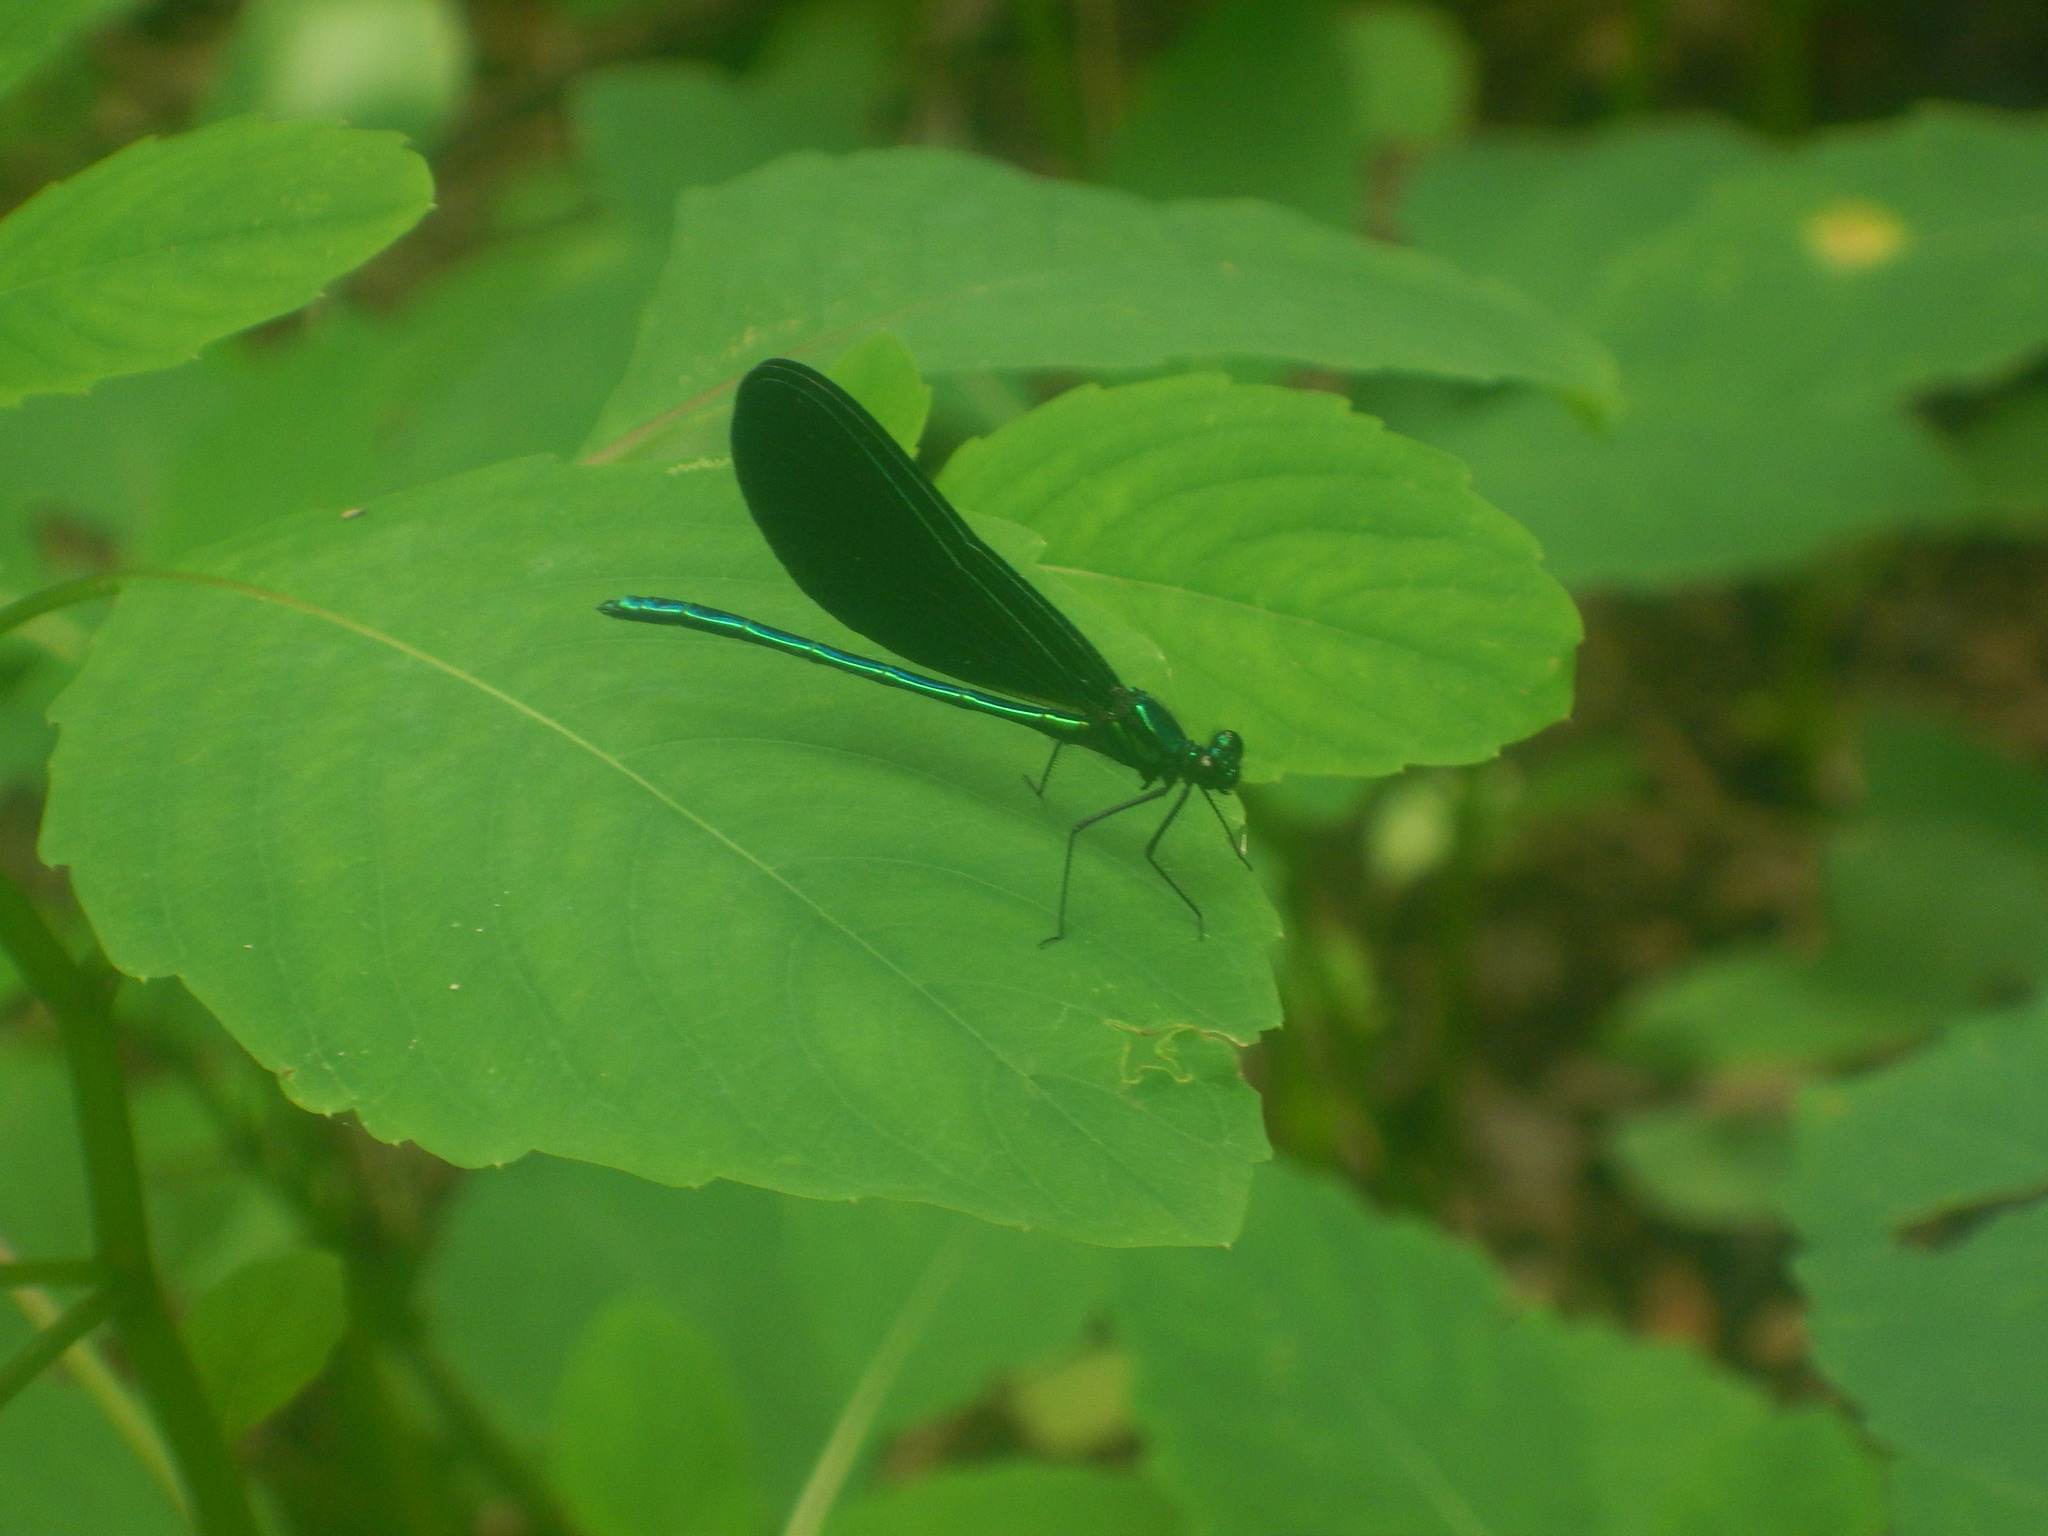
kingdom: Animalia
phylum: Arthropoda
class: Insecta
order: Odonata
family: Calopterygidae
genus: Calopteryx
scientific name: Calopteryx maculata
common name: Ebony jewelwing
